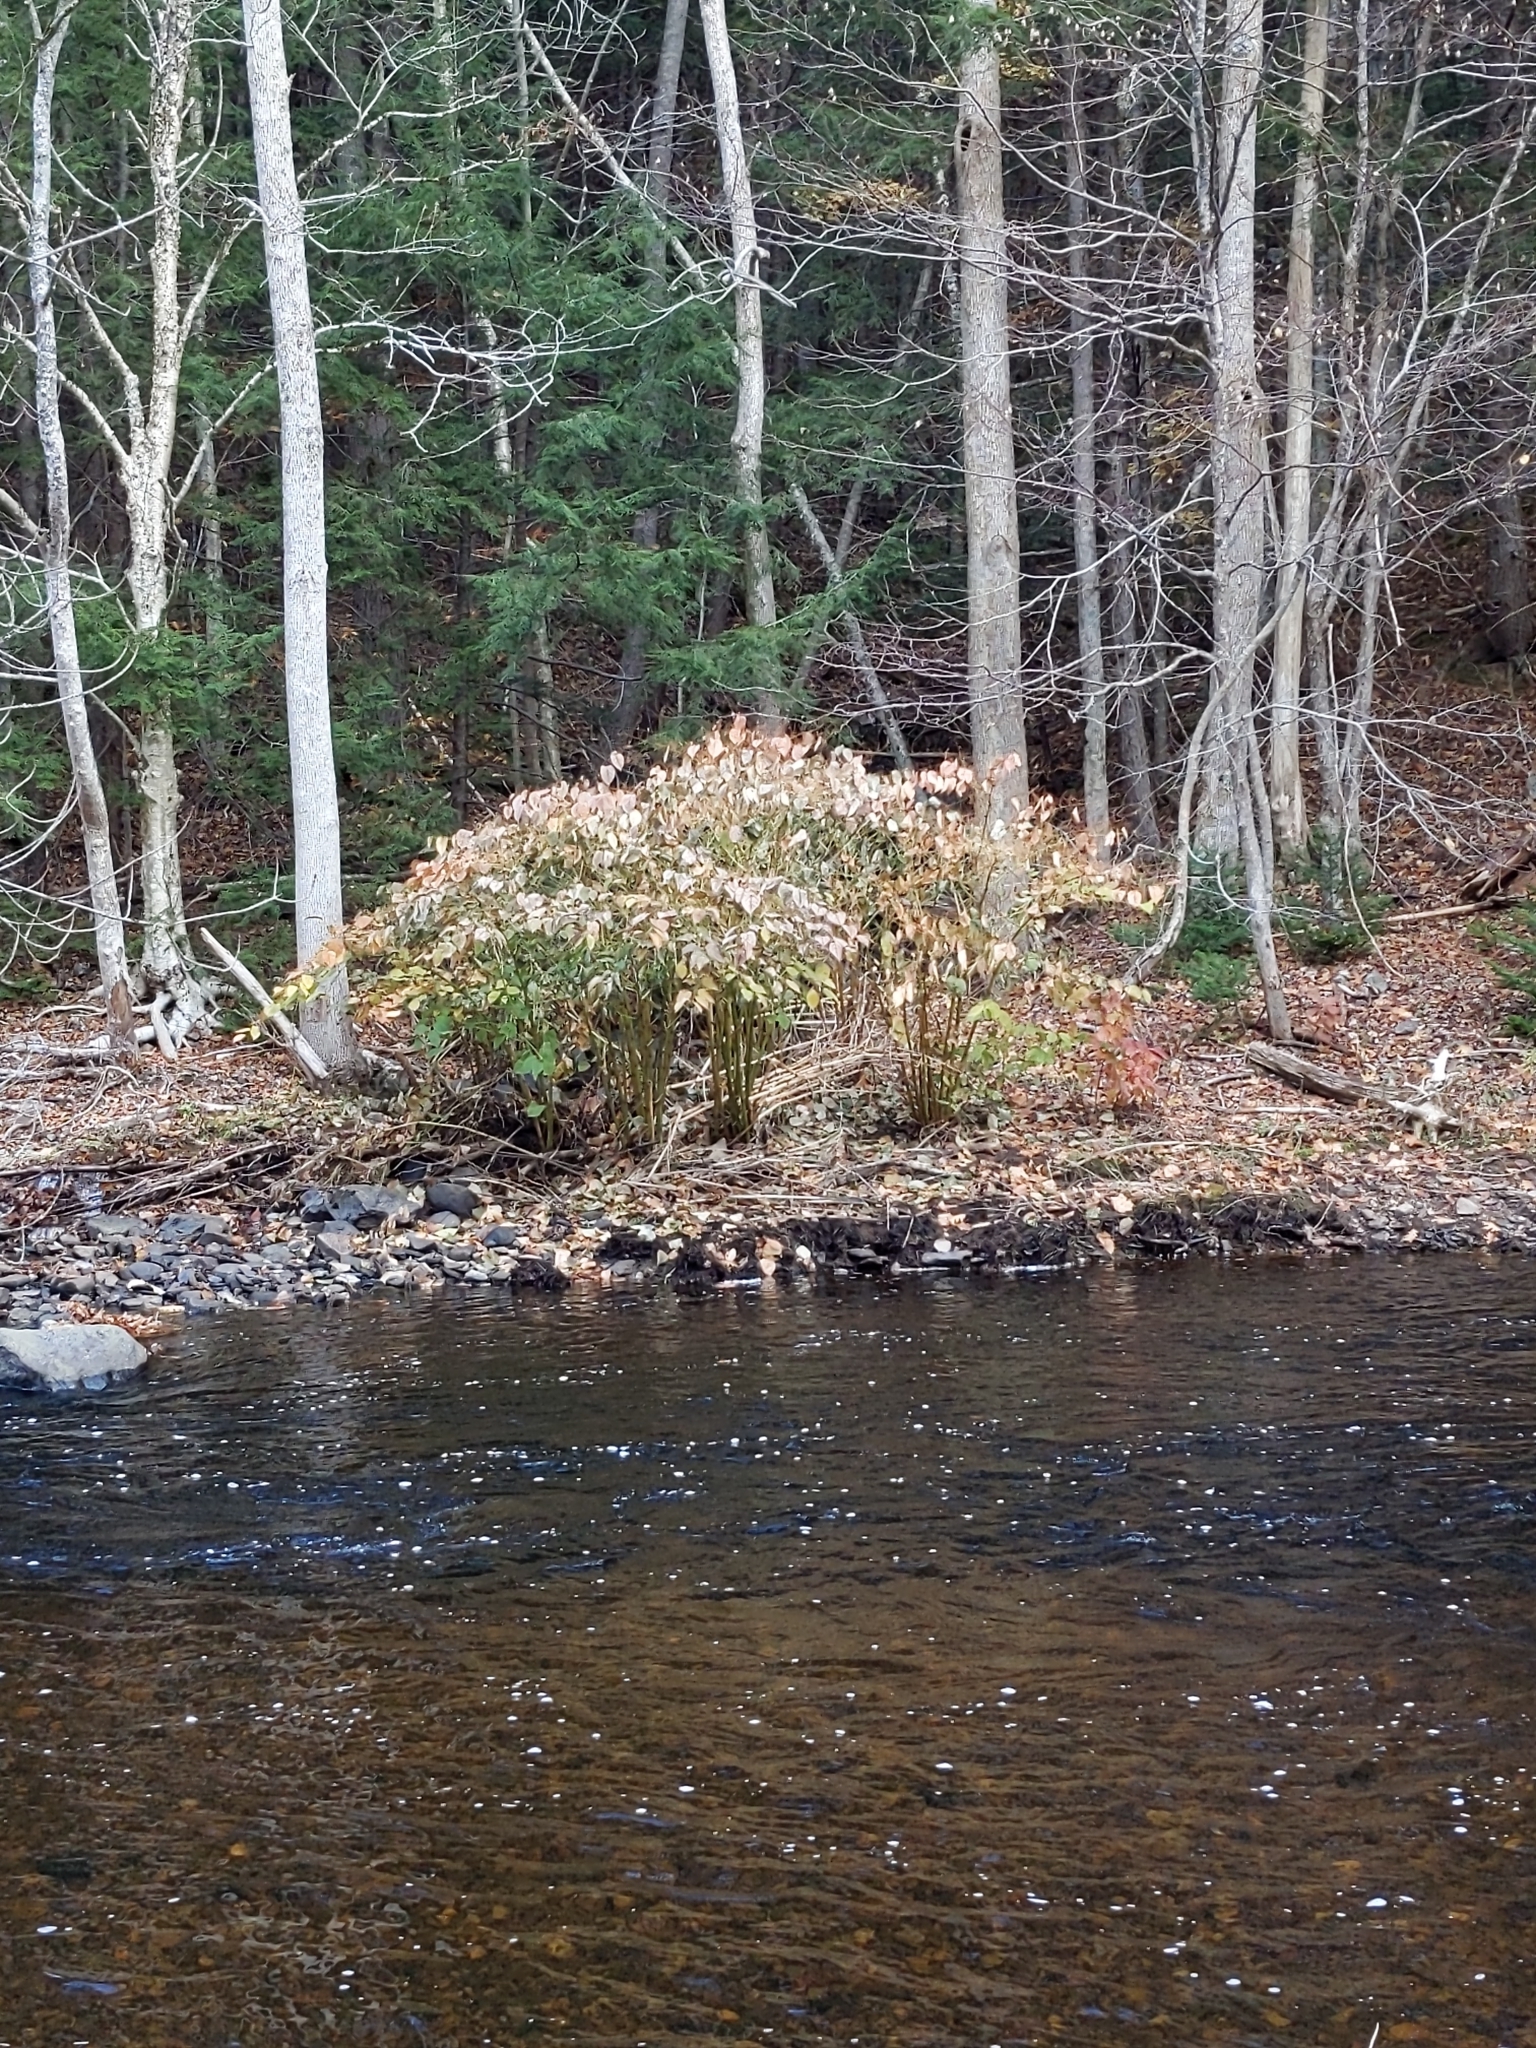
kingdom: Plantae
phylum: Tracheophyta
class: Magnoliopsida
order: Caryophyllales
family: Polygonaceae
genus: Reynoutria
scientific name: Reynoutria japonica
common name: Japanese knotweed
